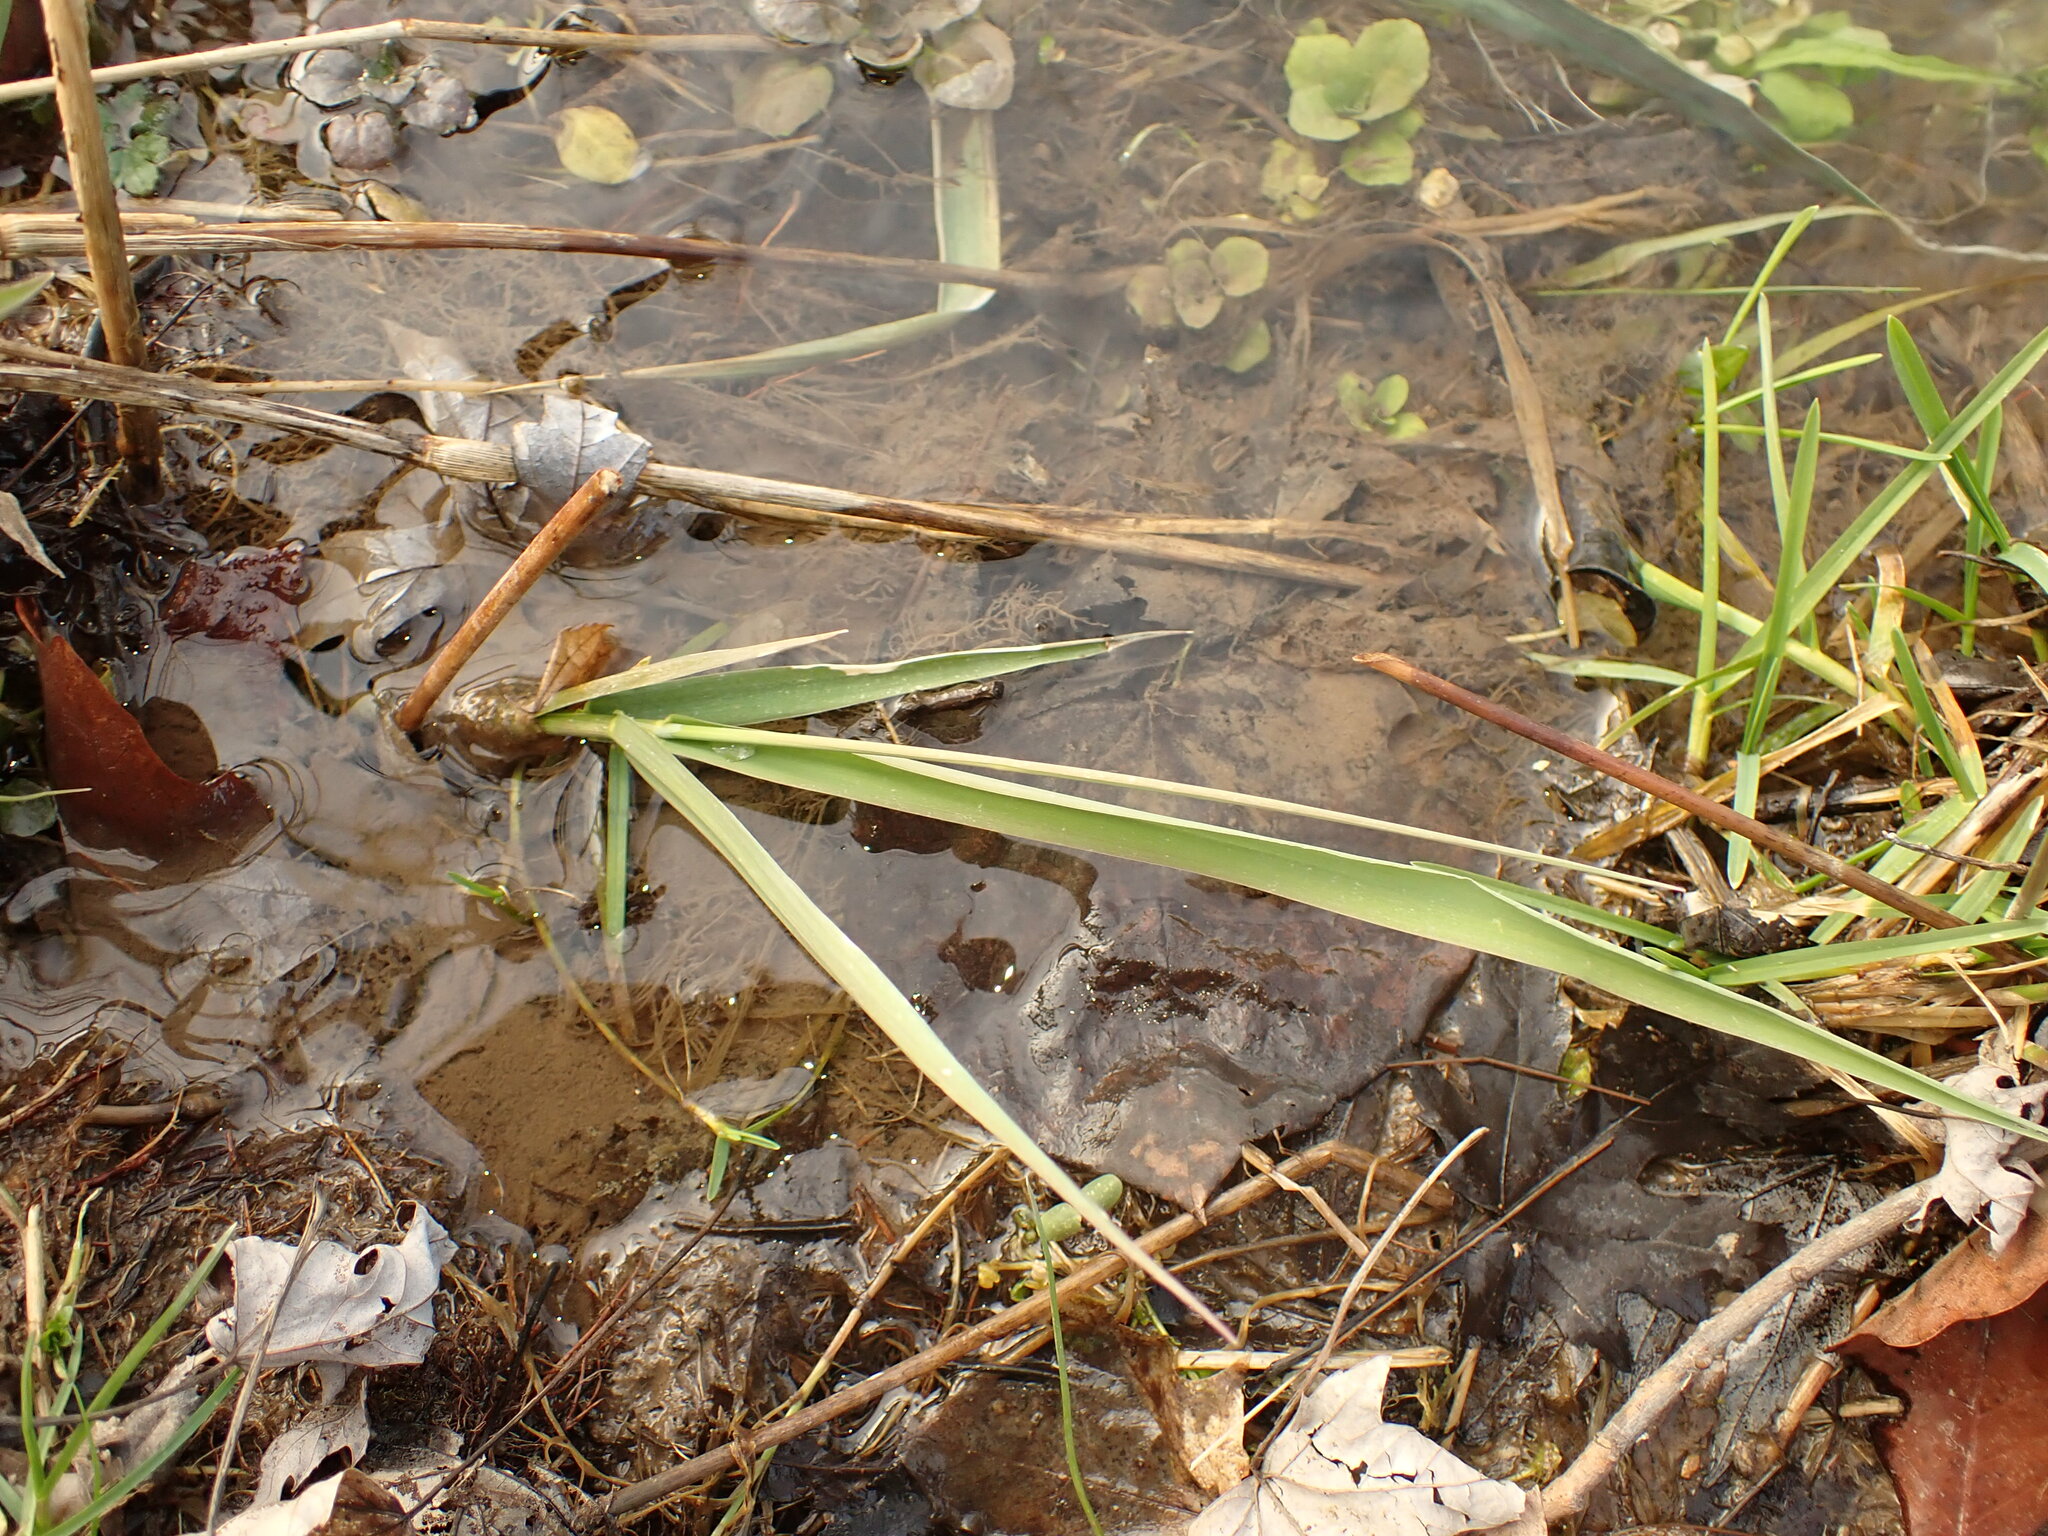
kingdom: Plantae
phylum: Tracheophyta
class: Liliopsida
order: Poales
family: Poaceae
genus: Phalaris
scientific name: Phalaris arundinacea
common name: Reed canary-grass
